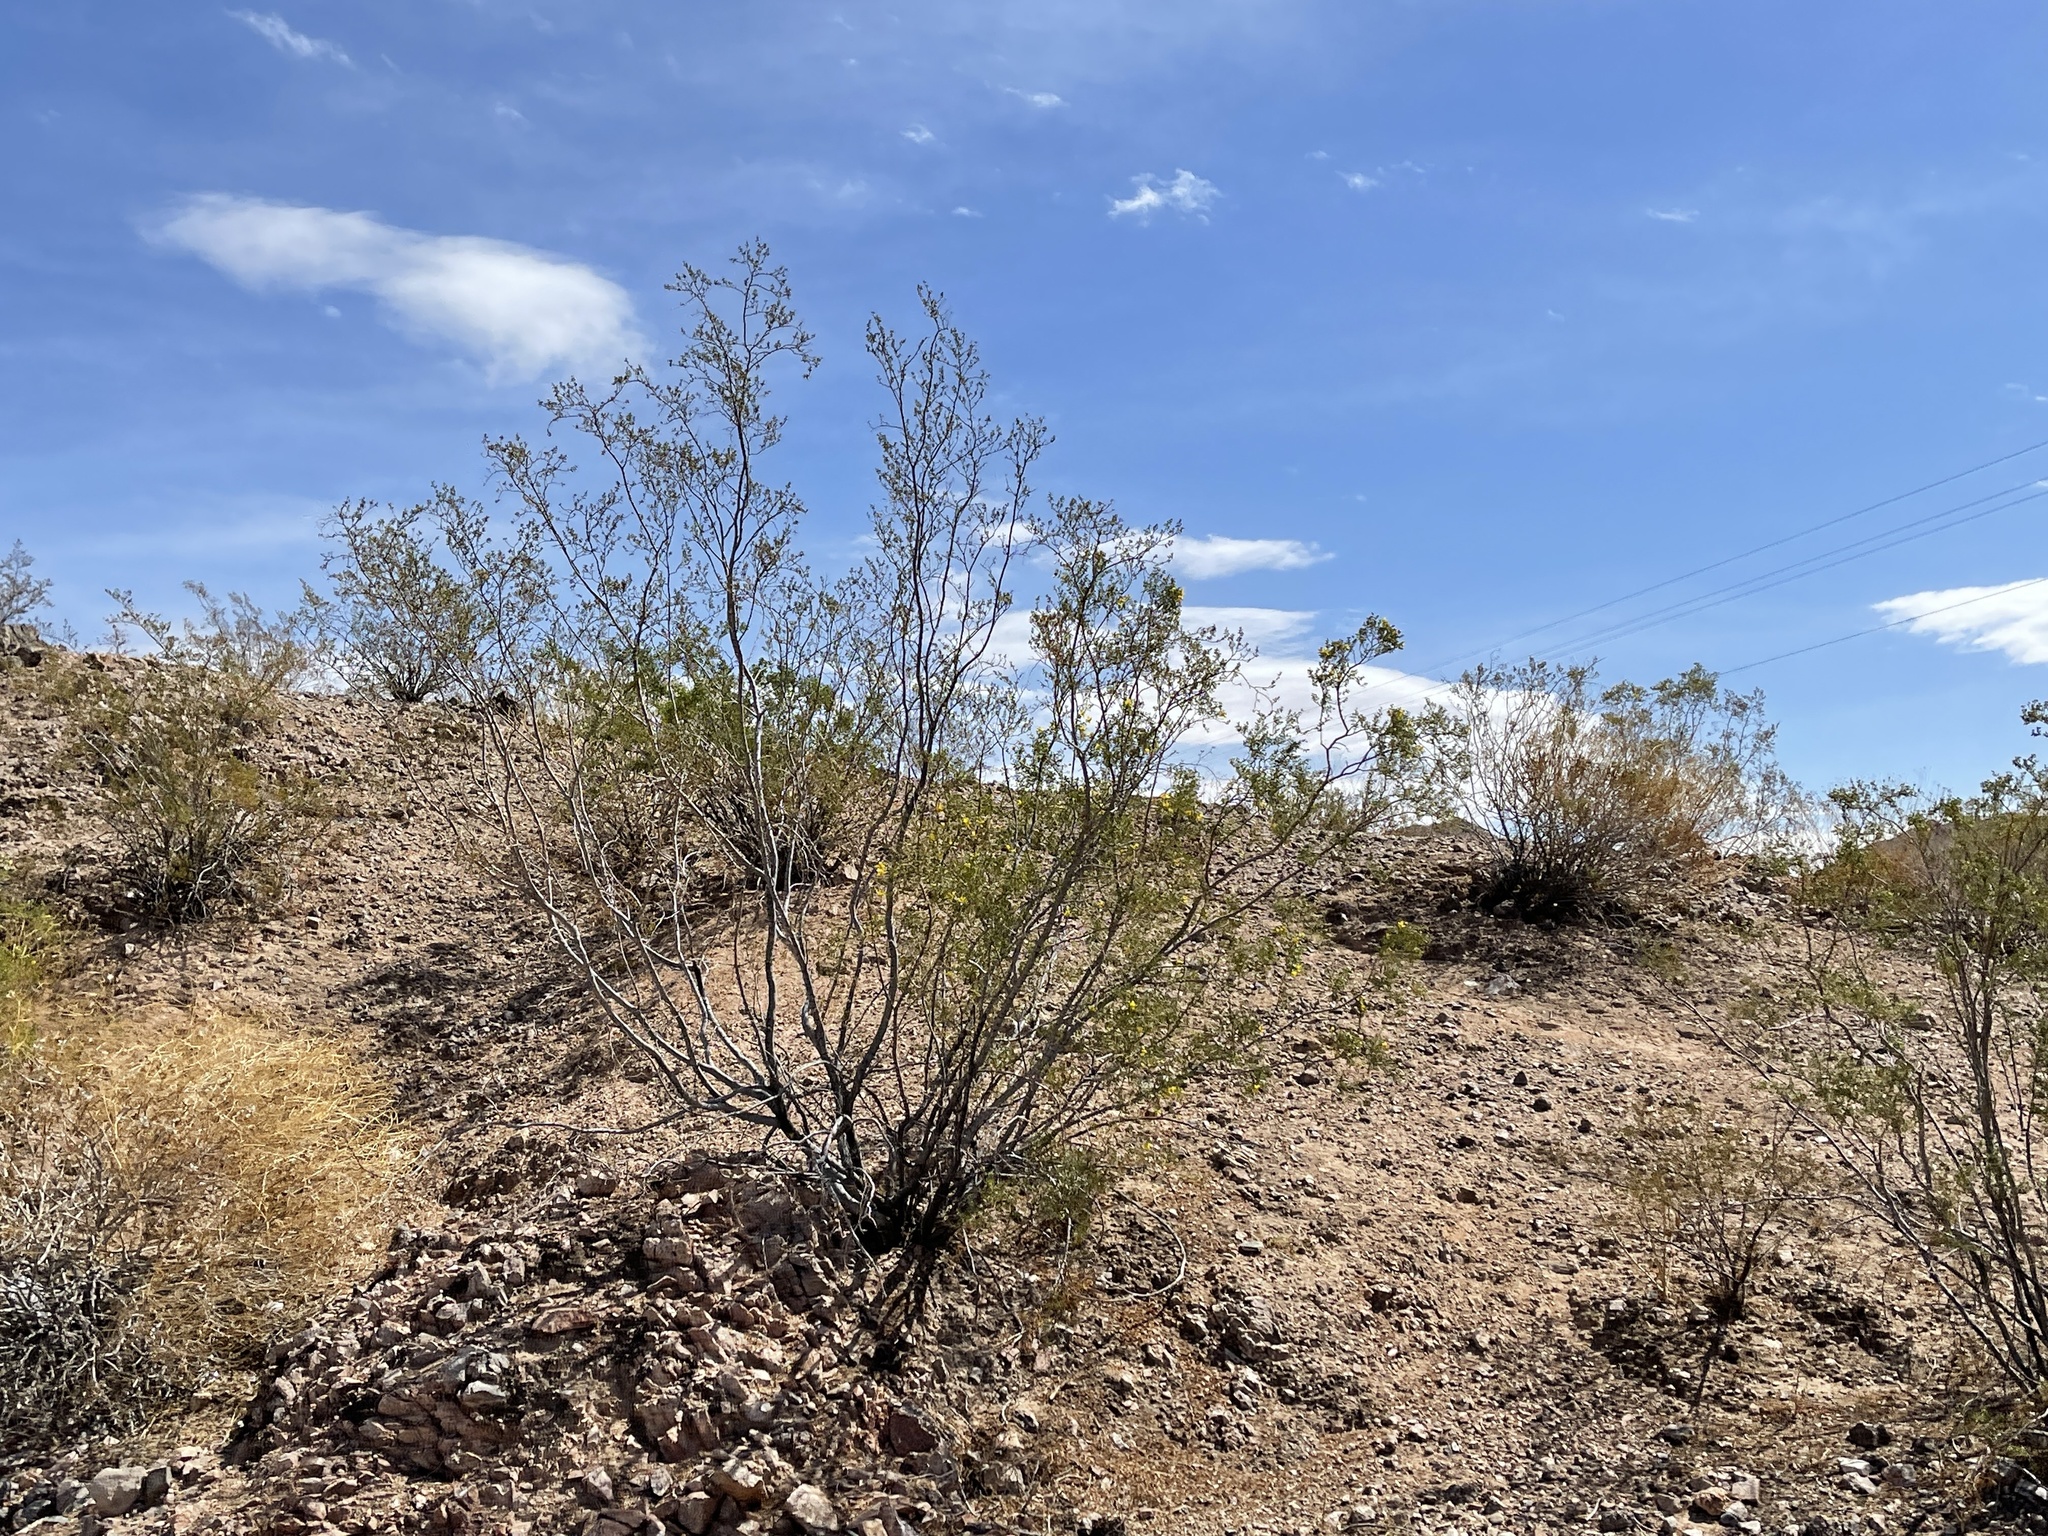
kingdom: Plantae
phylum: Tracheophyta
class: Magnoliopsida
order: Zygophyllales
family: Zygophyllaceae
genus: Larrea
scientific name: Larrea tridentata
